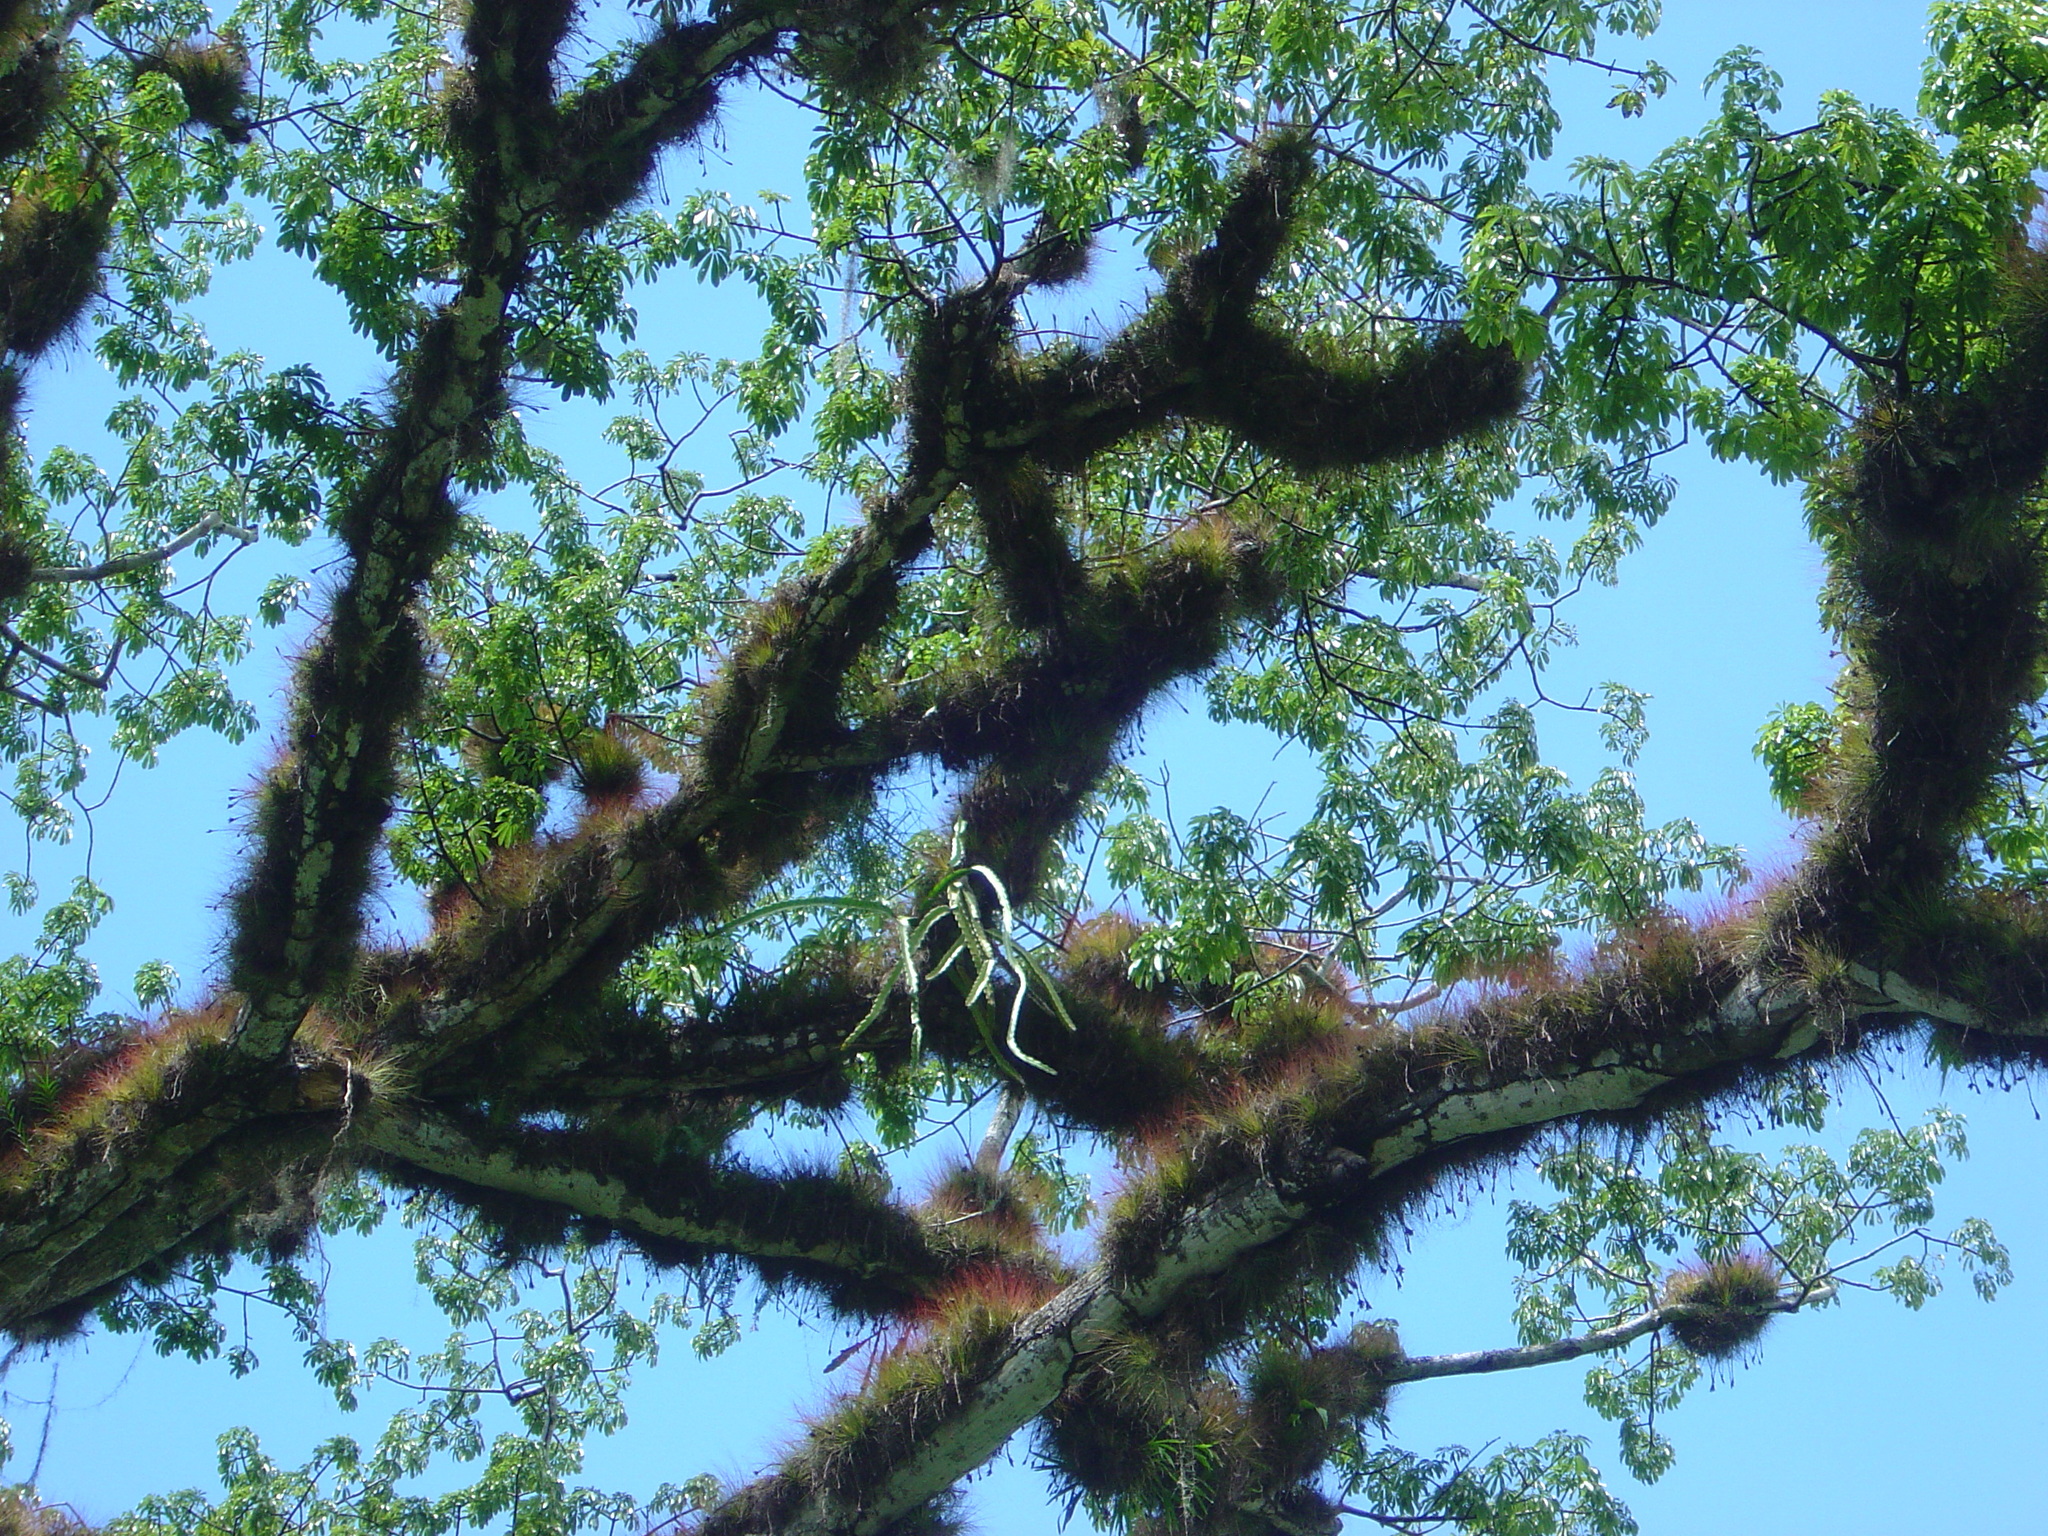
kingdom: Plantae
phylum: Tracheophyta
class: Magnoliopsida
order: Malvales
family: Malvaceae
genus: Ceiba
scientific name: Ceiba pentandra
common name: Kapok
